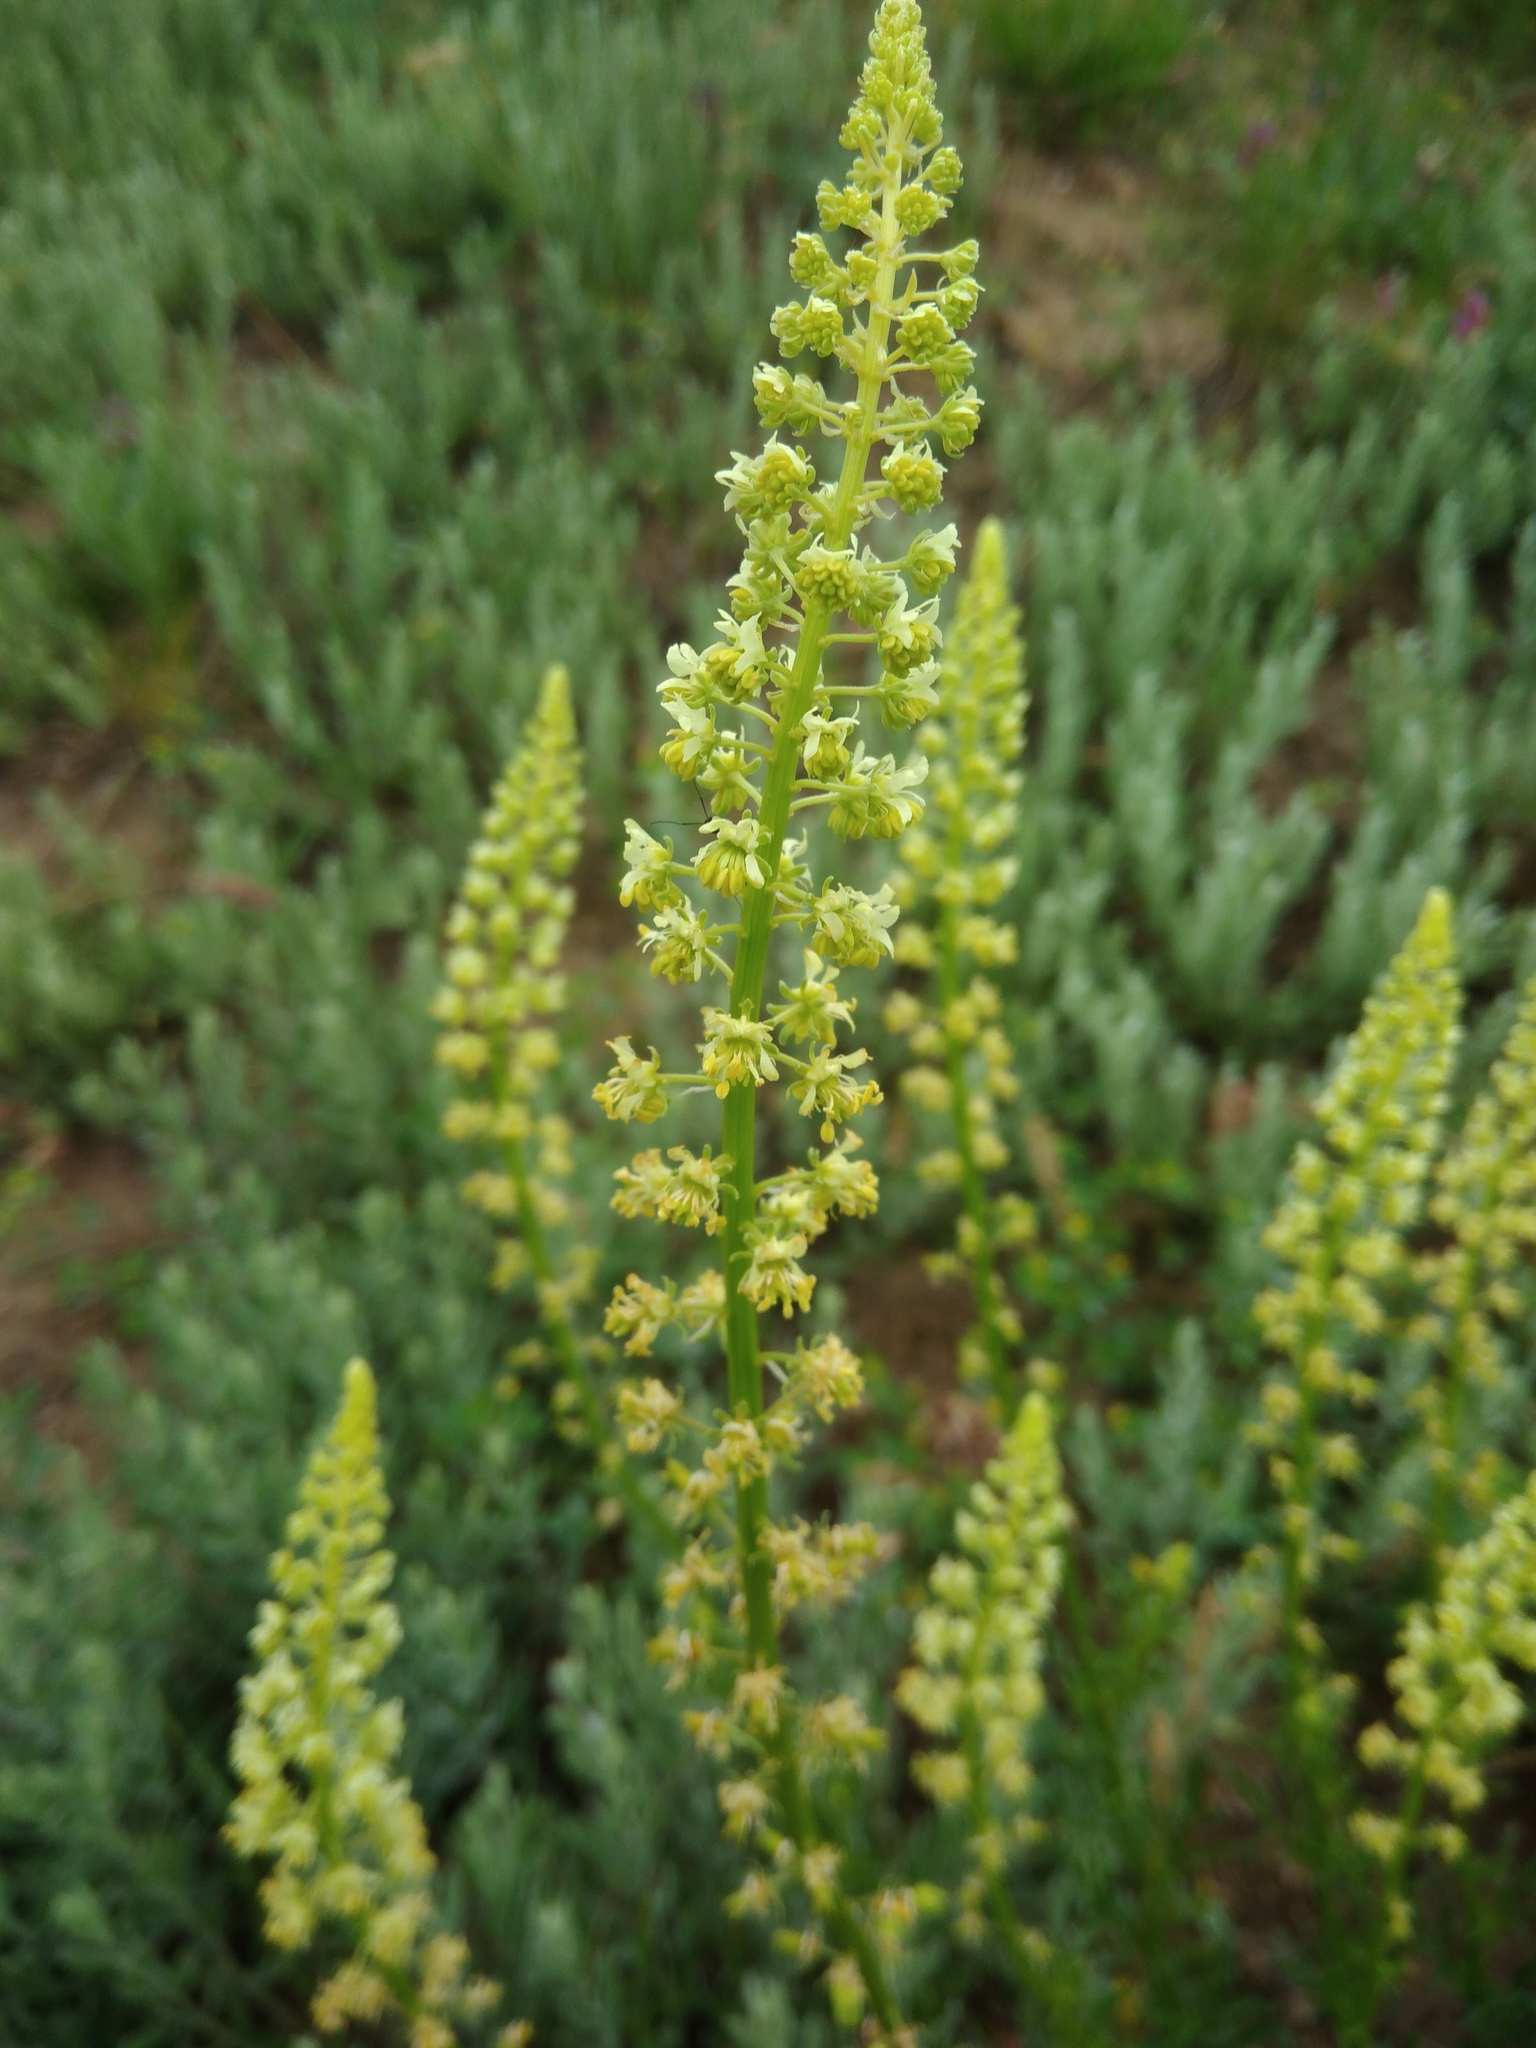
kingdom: Plantae
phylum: Tracheophyta
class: Magnoliopsida
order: Brassicales
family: Resedaceae
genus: Reseda
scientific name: Reseda lutea
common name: Wild mignonette
